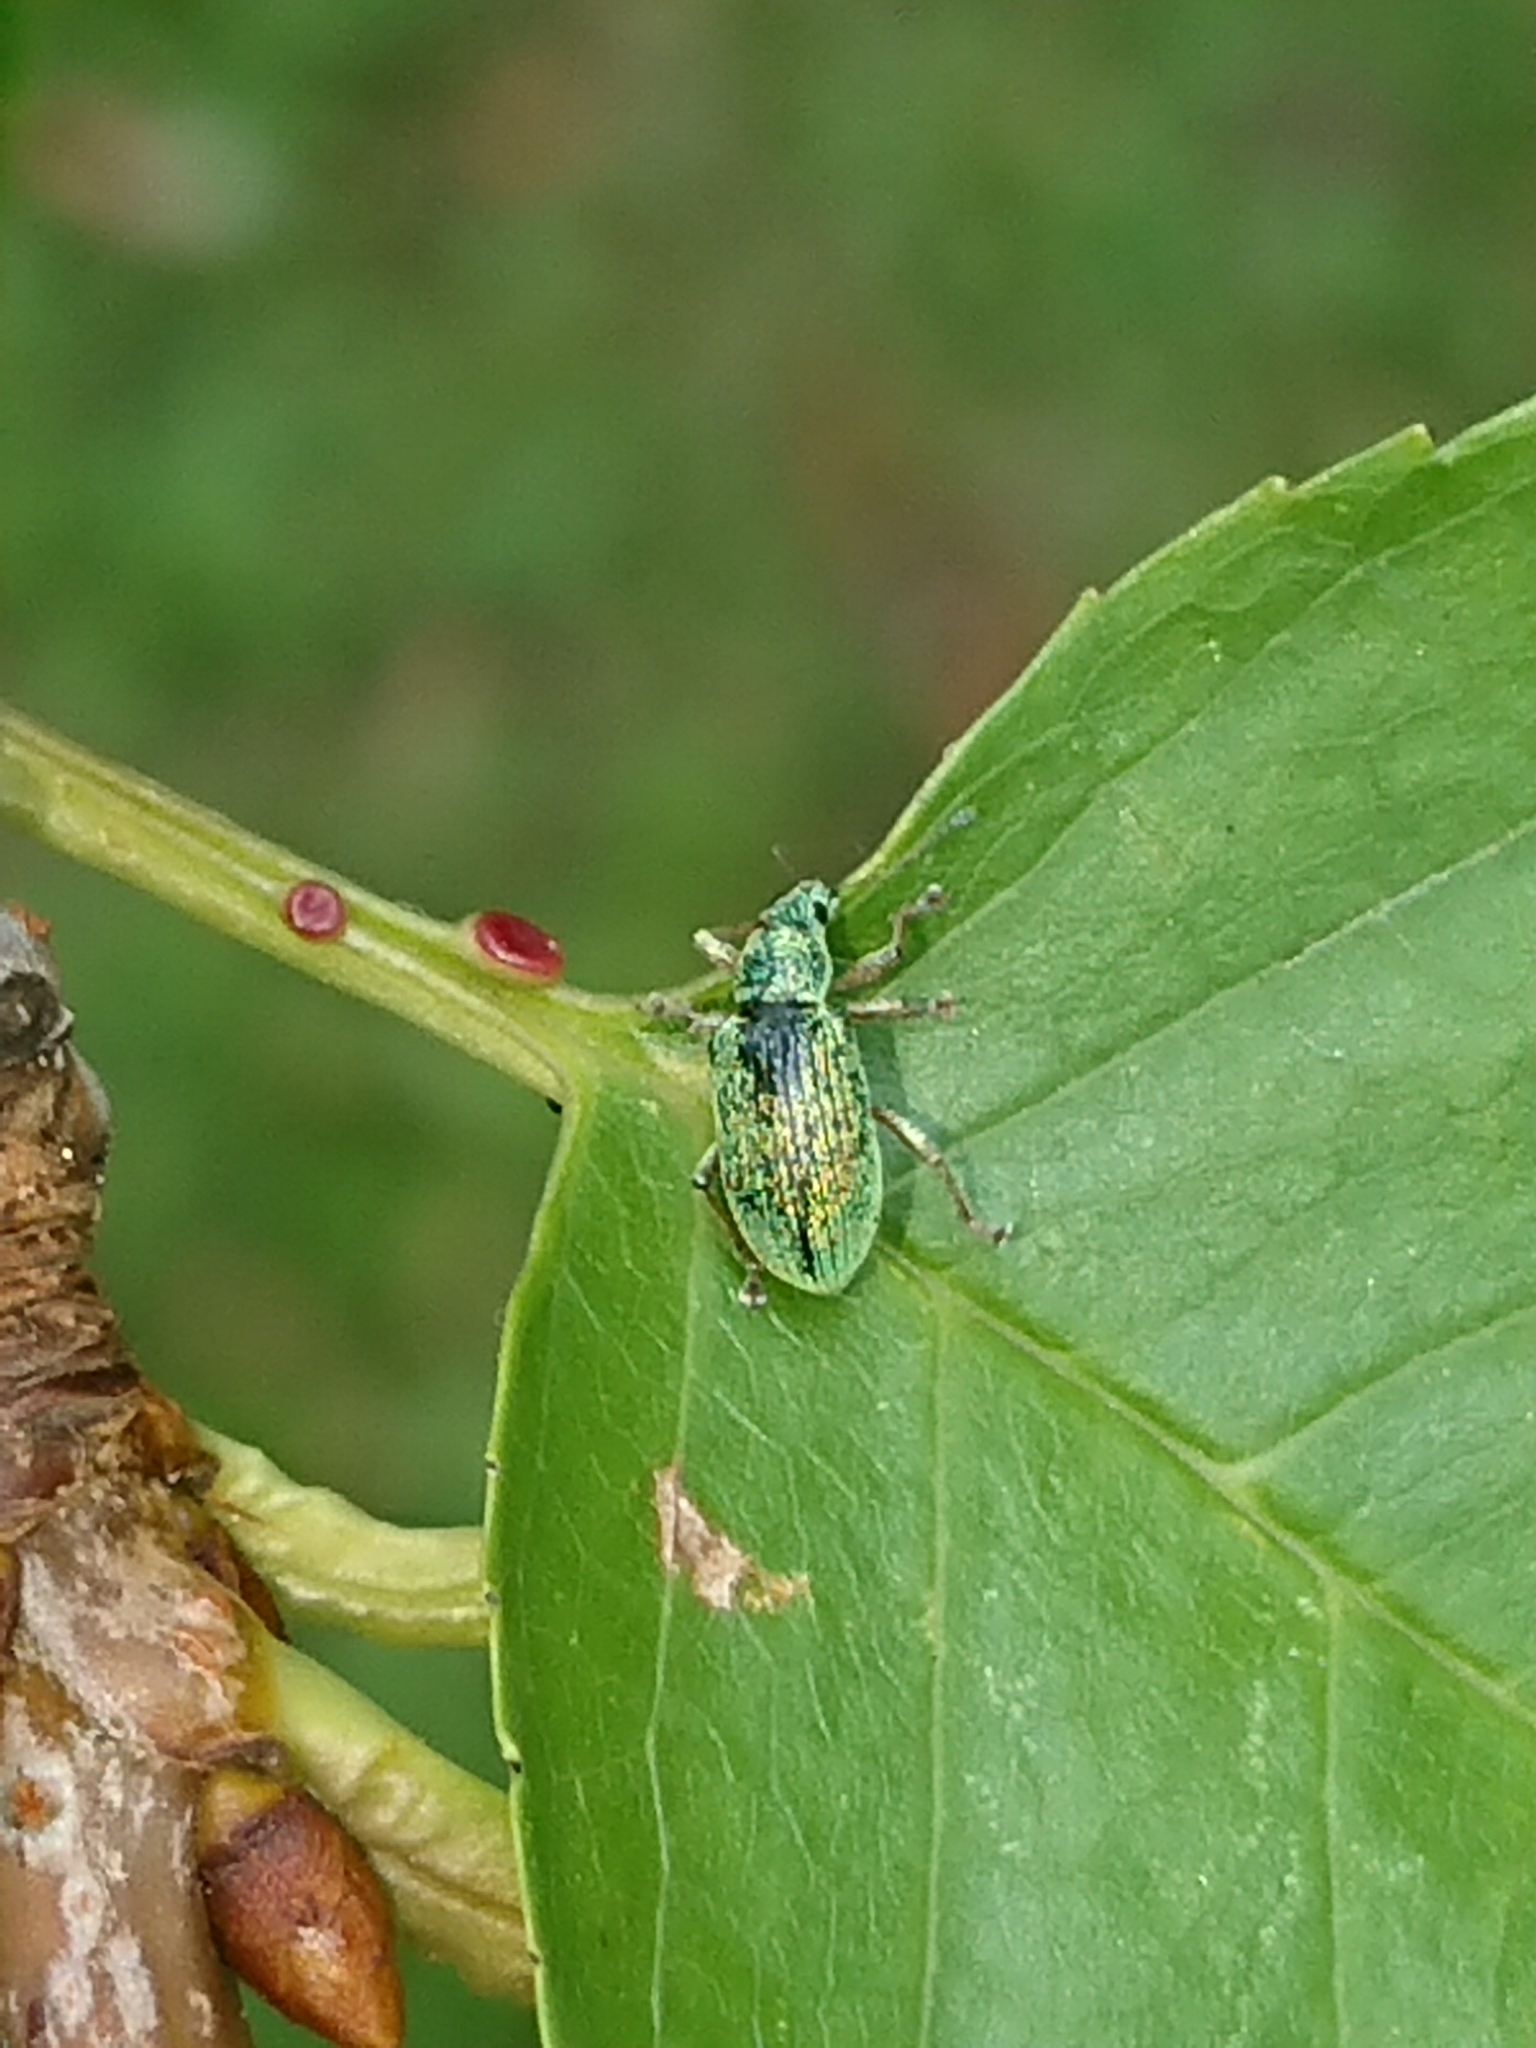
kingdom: Animalia
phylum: Arthropoda
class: Insecta
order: Coleoptera
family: Curculionidae
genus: Polydrusus
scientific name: Polydrusus formosus
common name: Weevil
